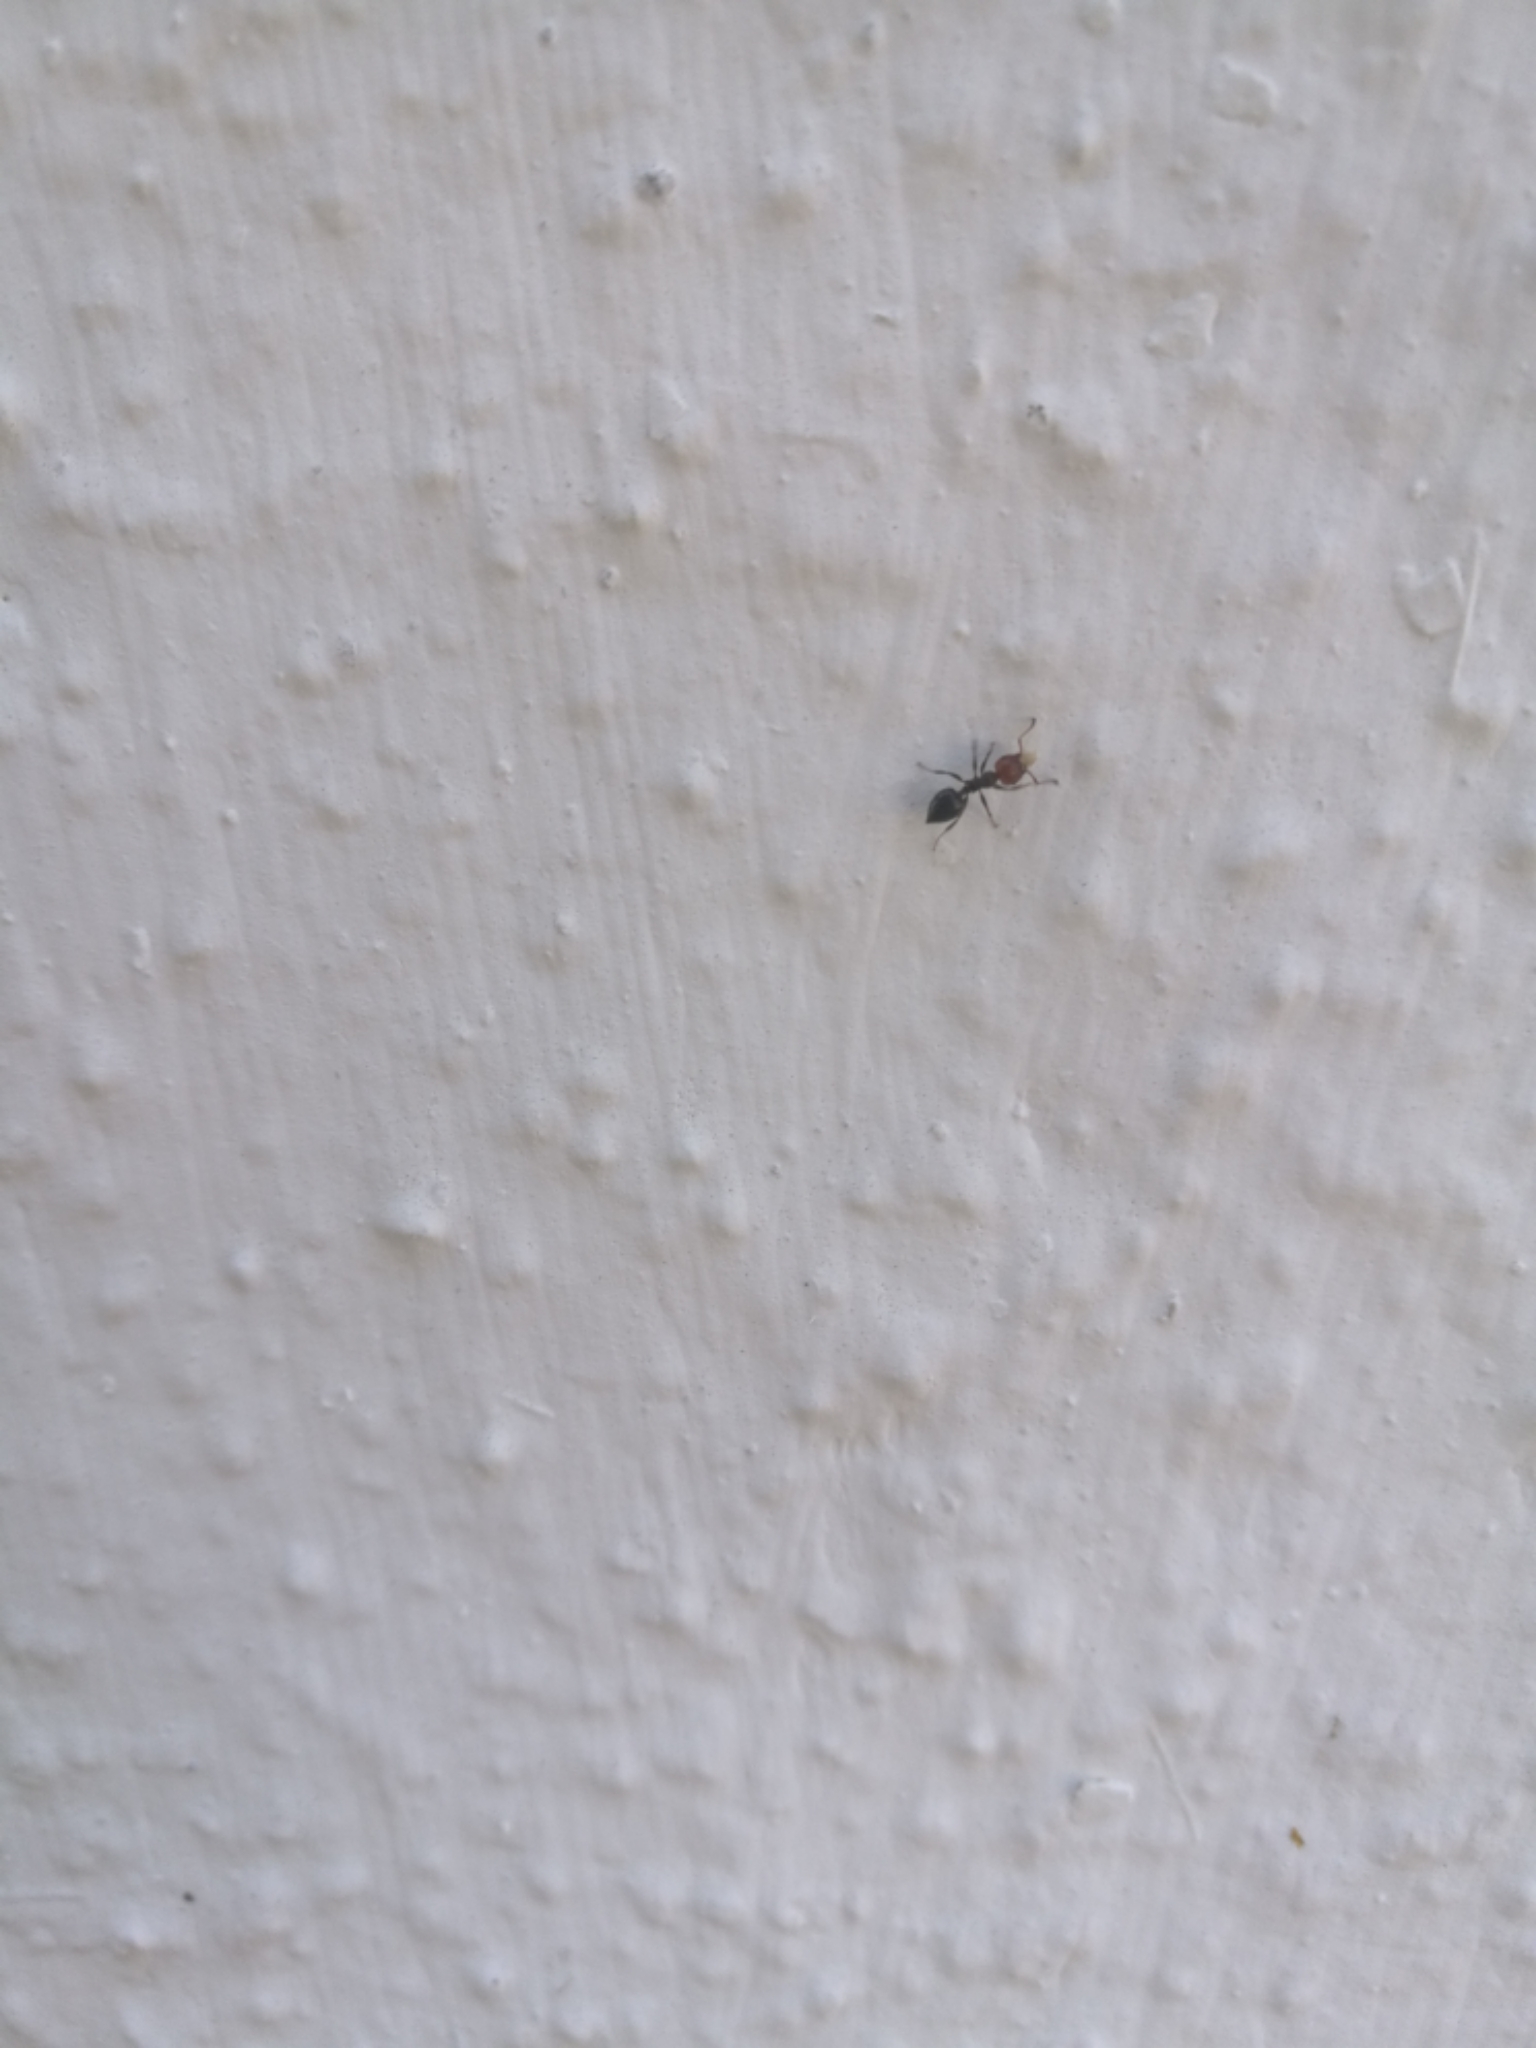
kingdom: Animalia
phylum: Arthropoda
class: Insecta
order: Hymenoptera
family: Formicidae
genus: Crematogaster
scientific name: Crematogaster scutellaris
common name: Fourmi du liège
